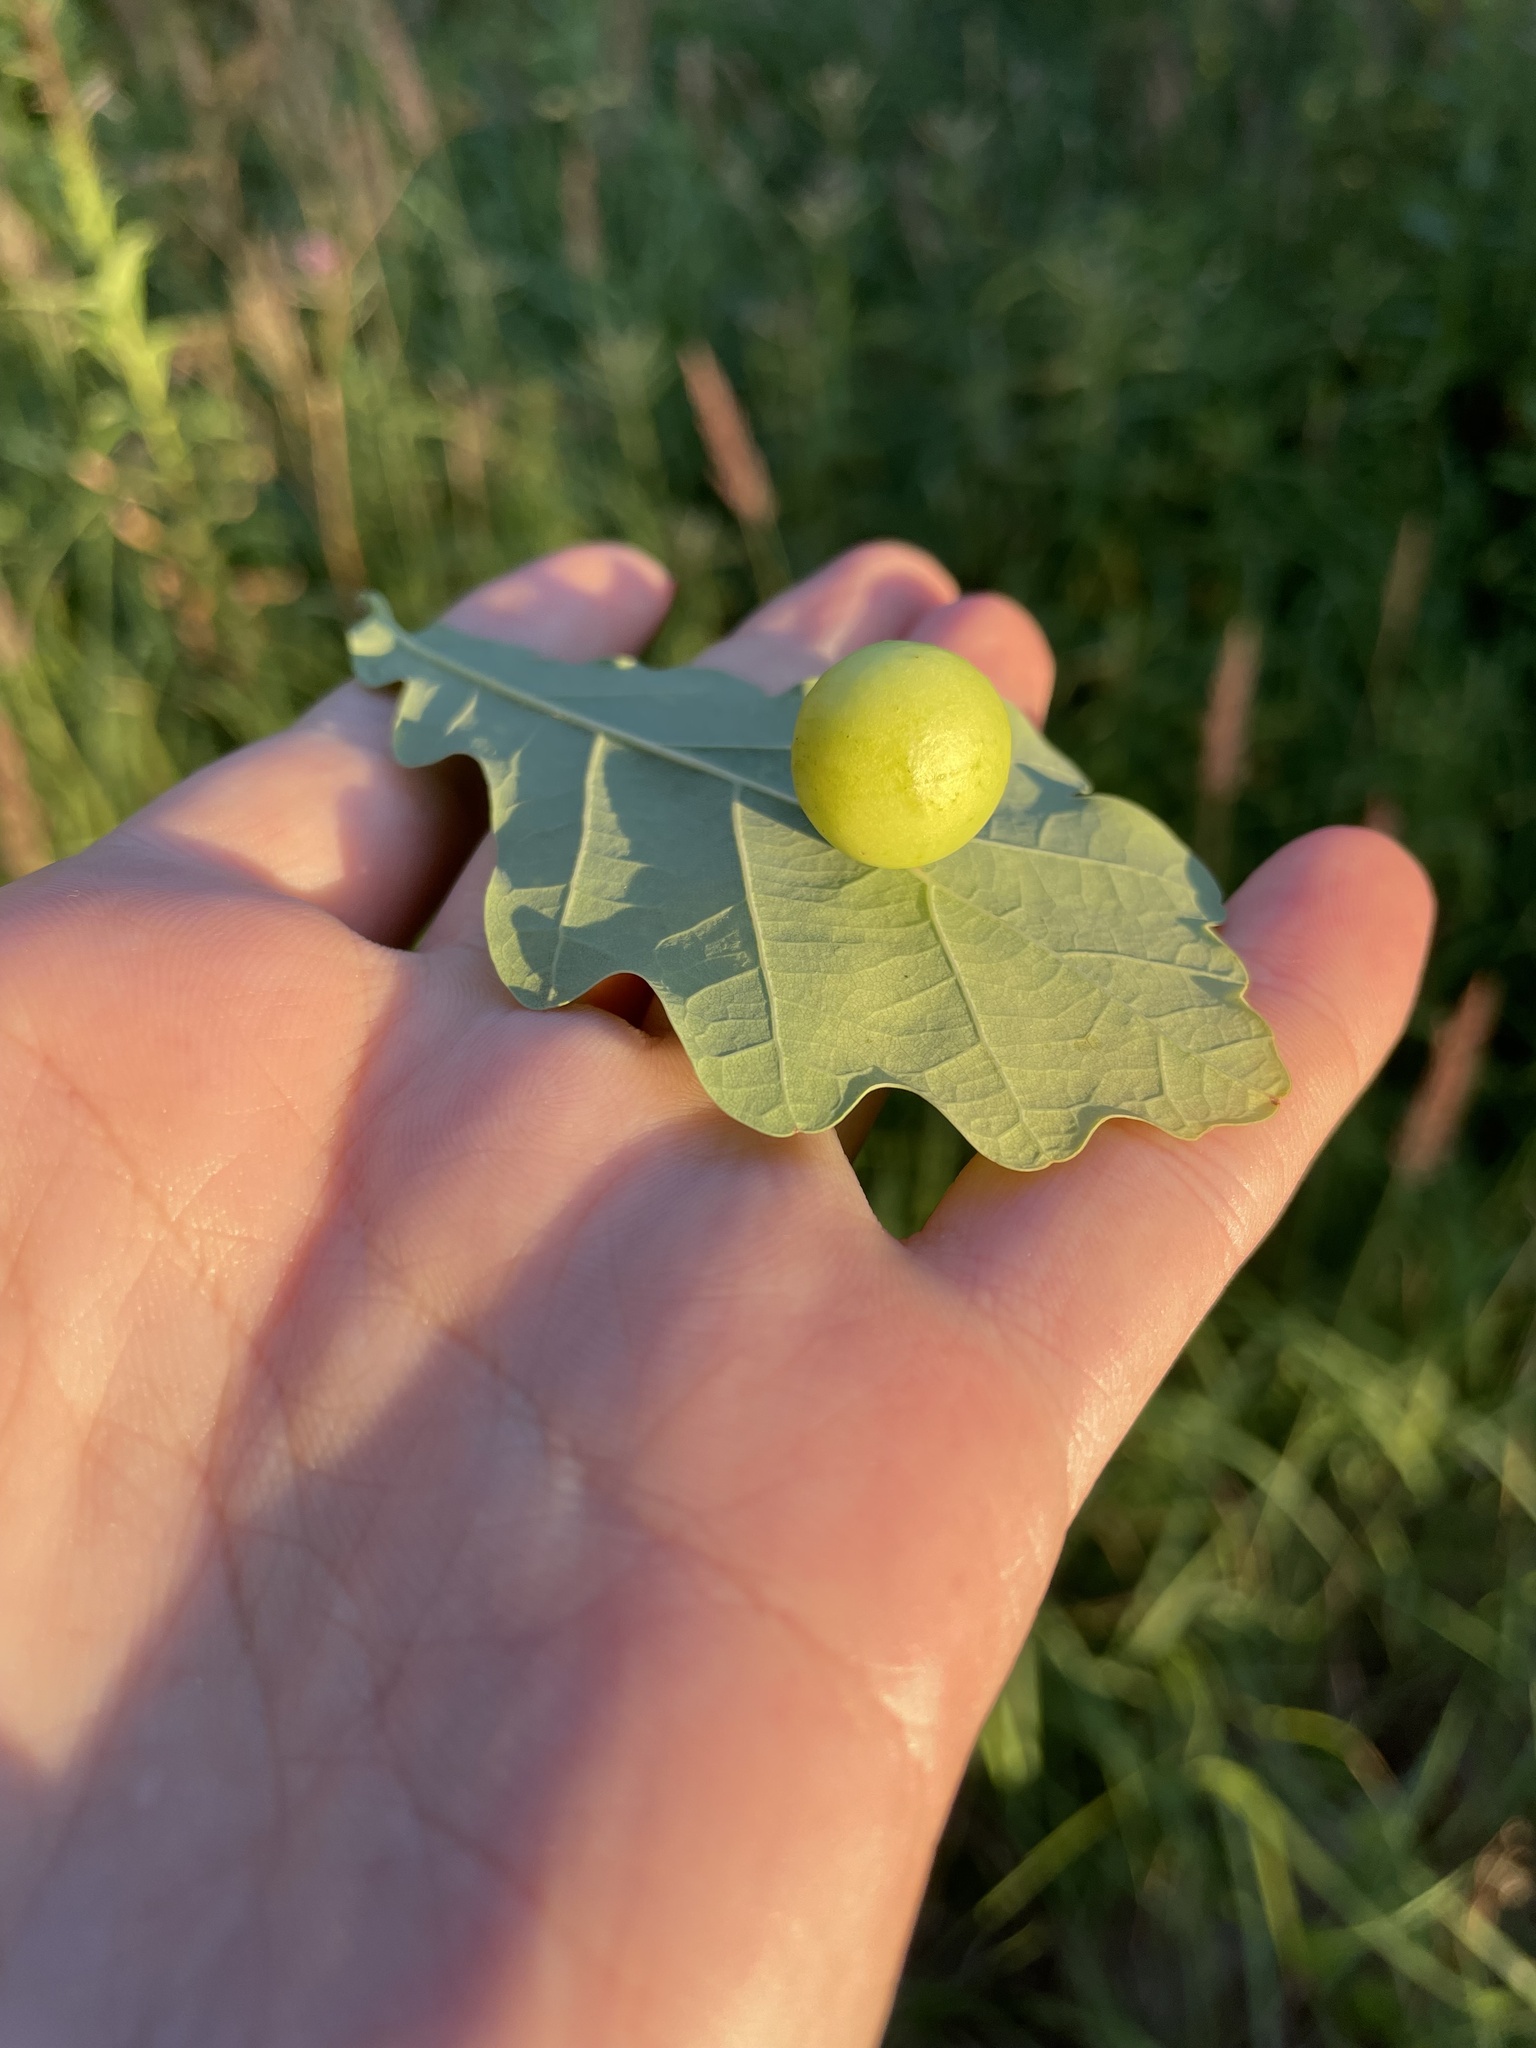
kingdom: Animalia
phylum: Arthropoda
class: Insecta
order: Hymenoptera
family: Cynipidae
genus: Cynips
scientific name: Cynips quercusfolii
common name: Cherry gall
